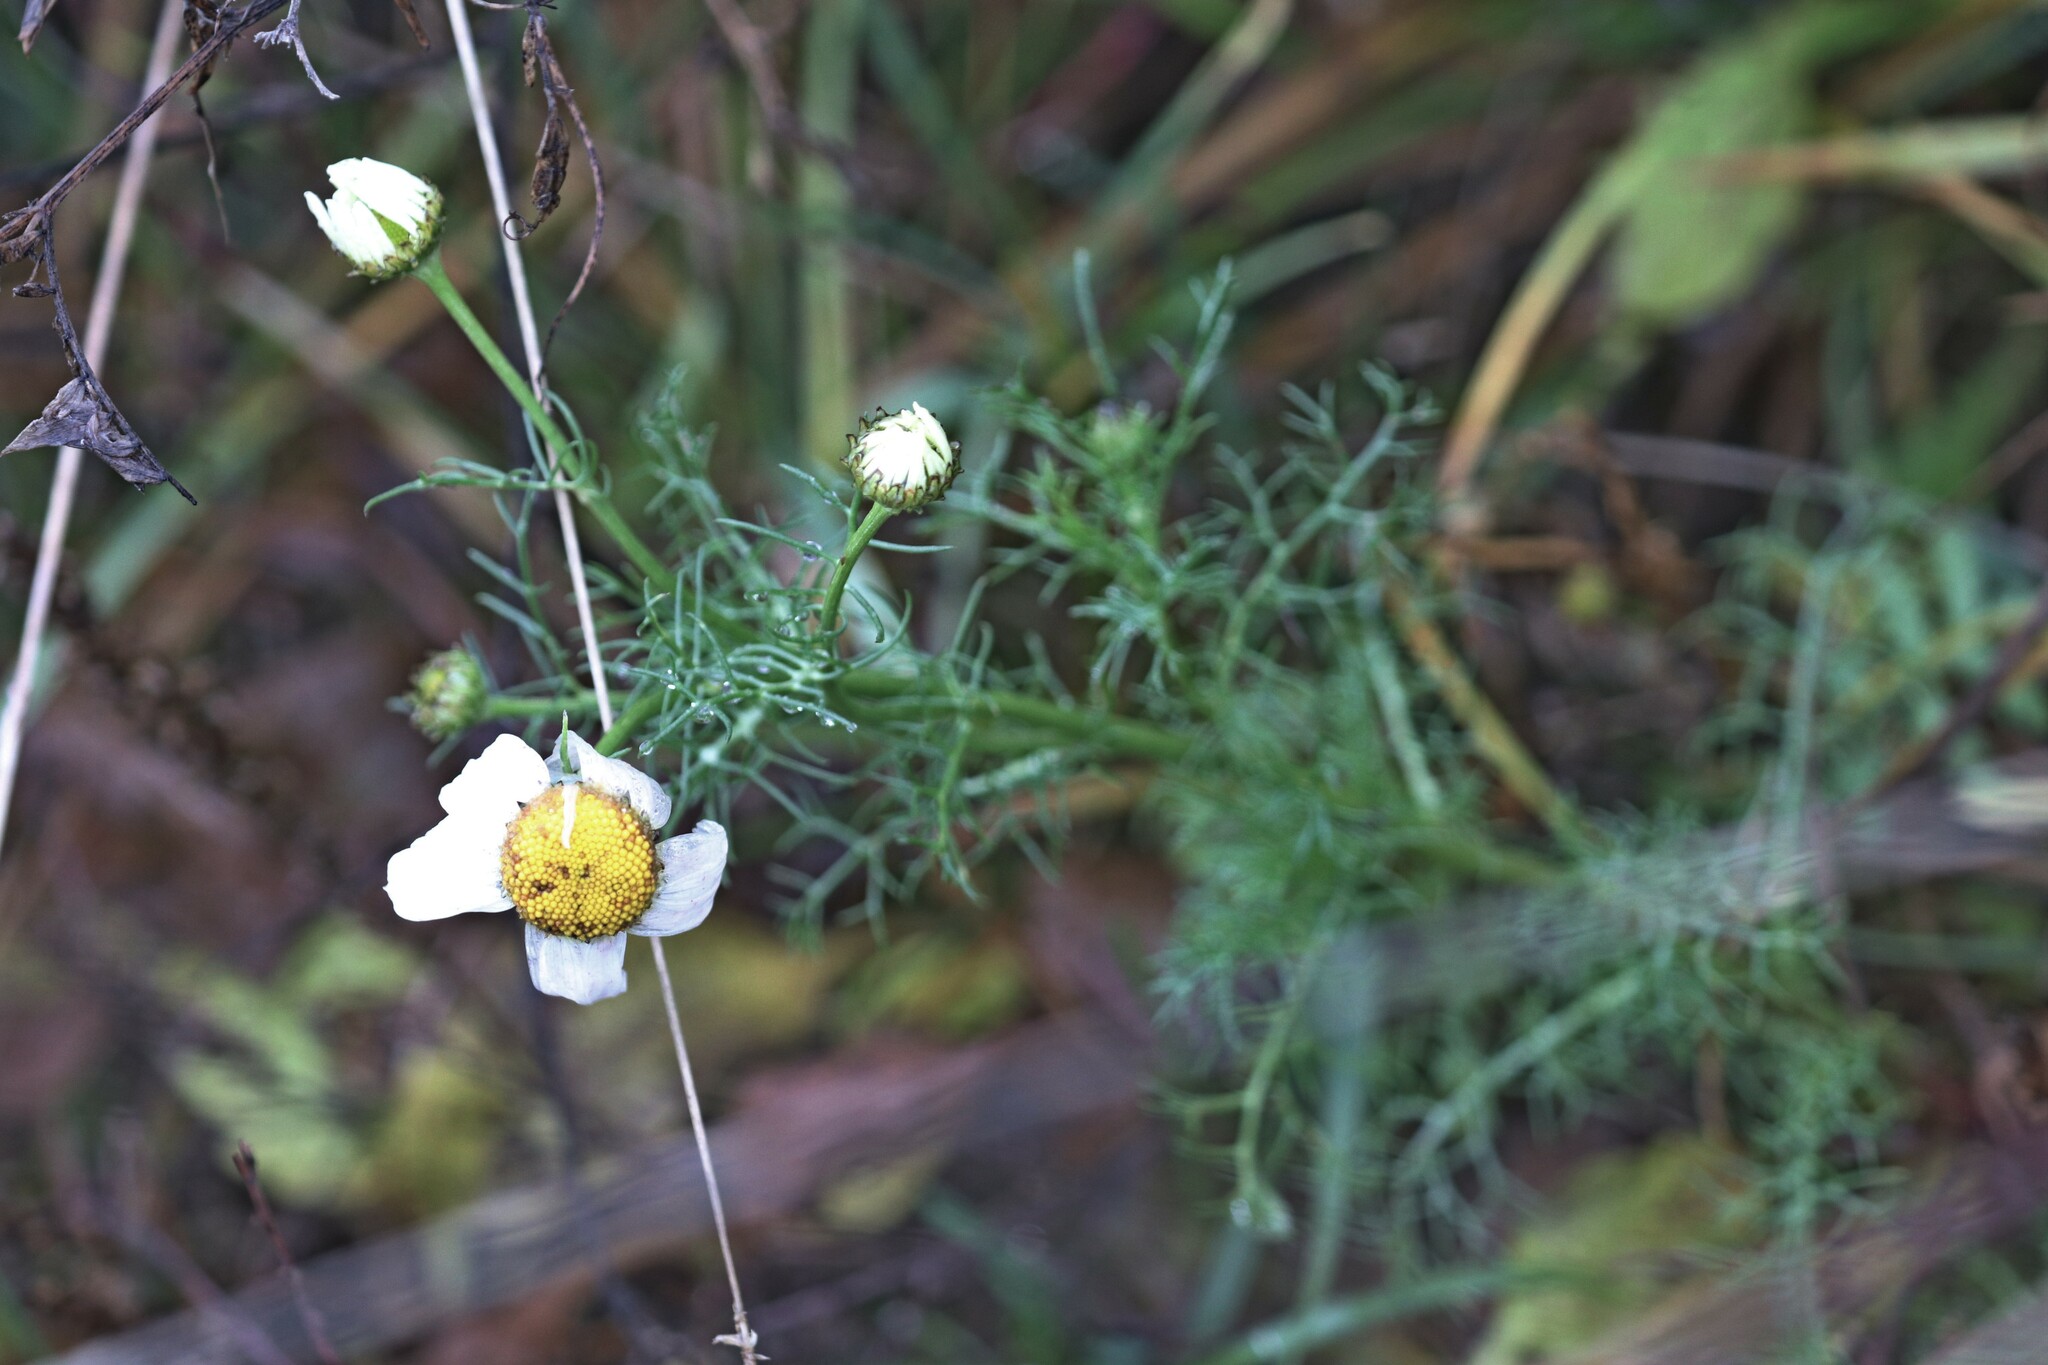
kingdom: Plantae
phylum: Tracheophyta
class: Magnoliopsida
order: Asterales
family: Asteraceae
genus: Tripleurospermum
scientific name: Tripleurospermum inodorum
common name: Scentless mayweed
